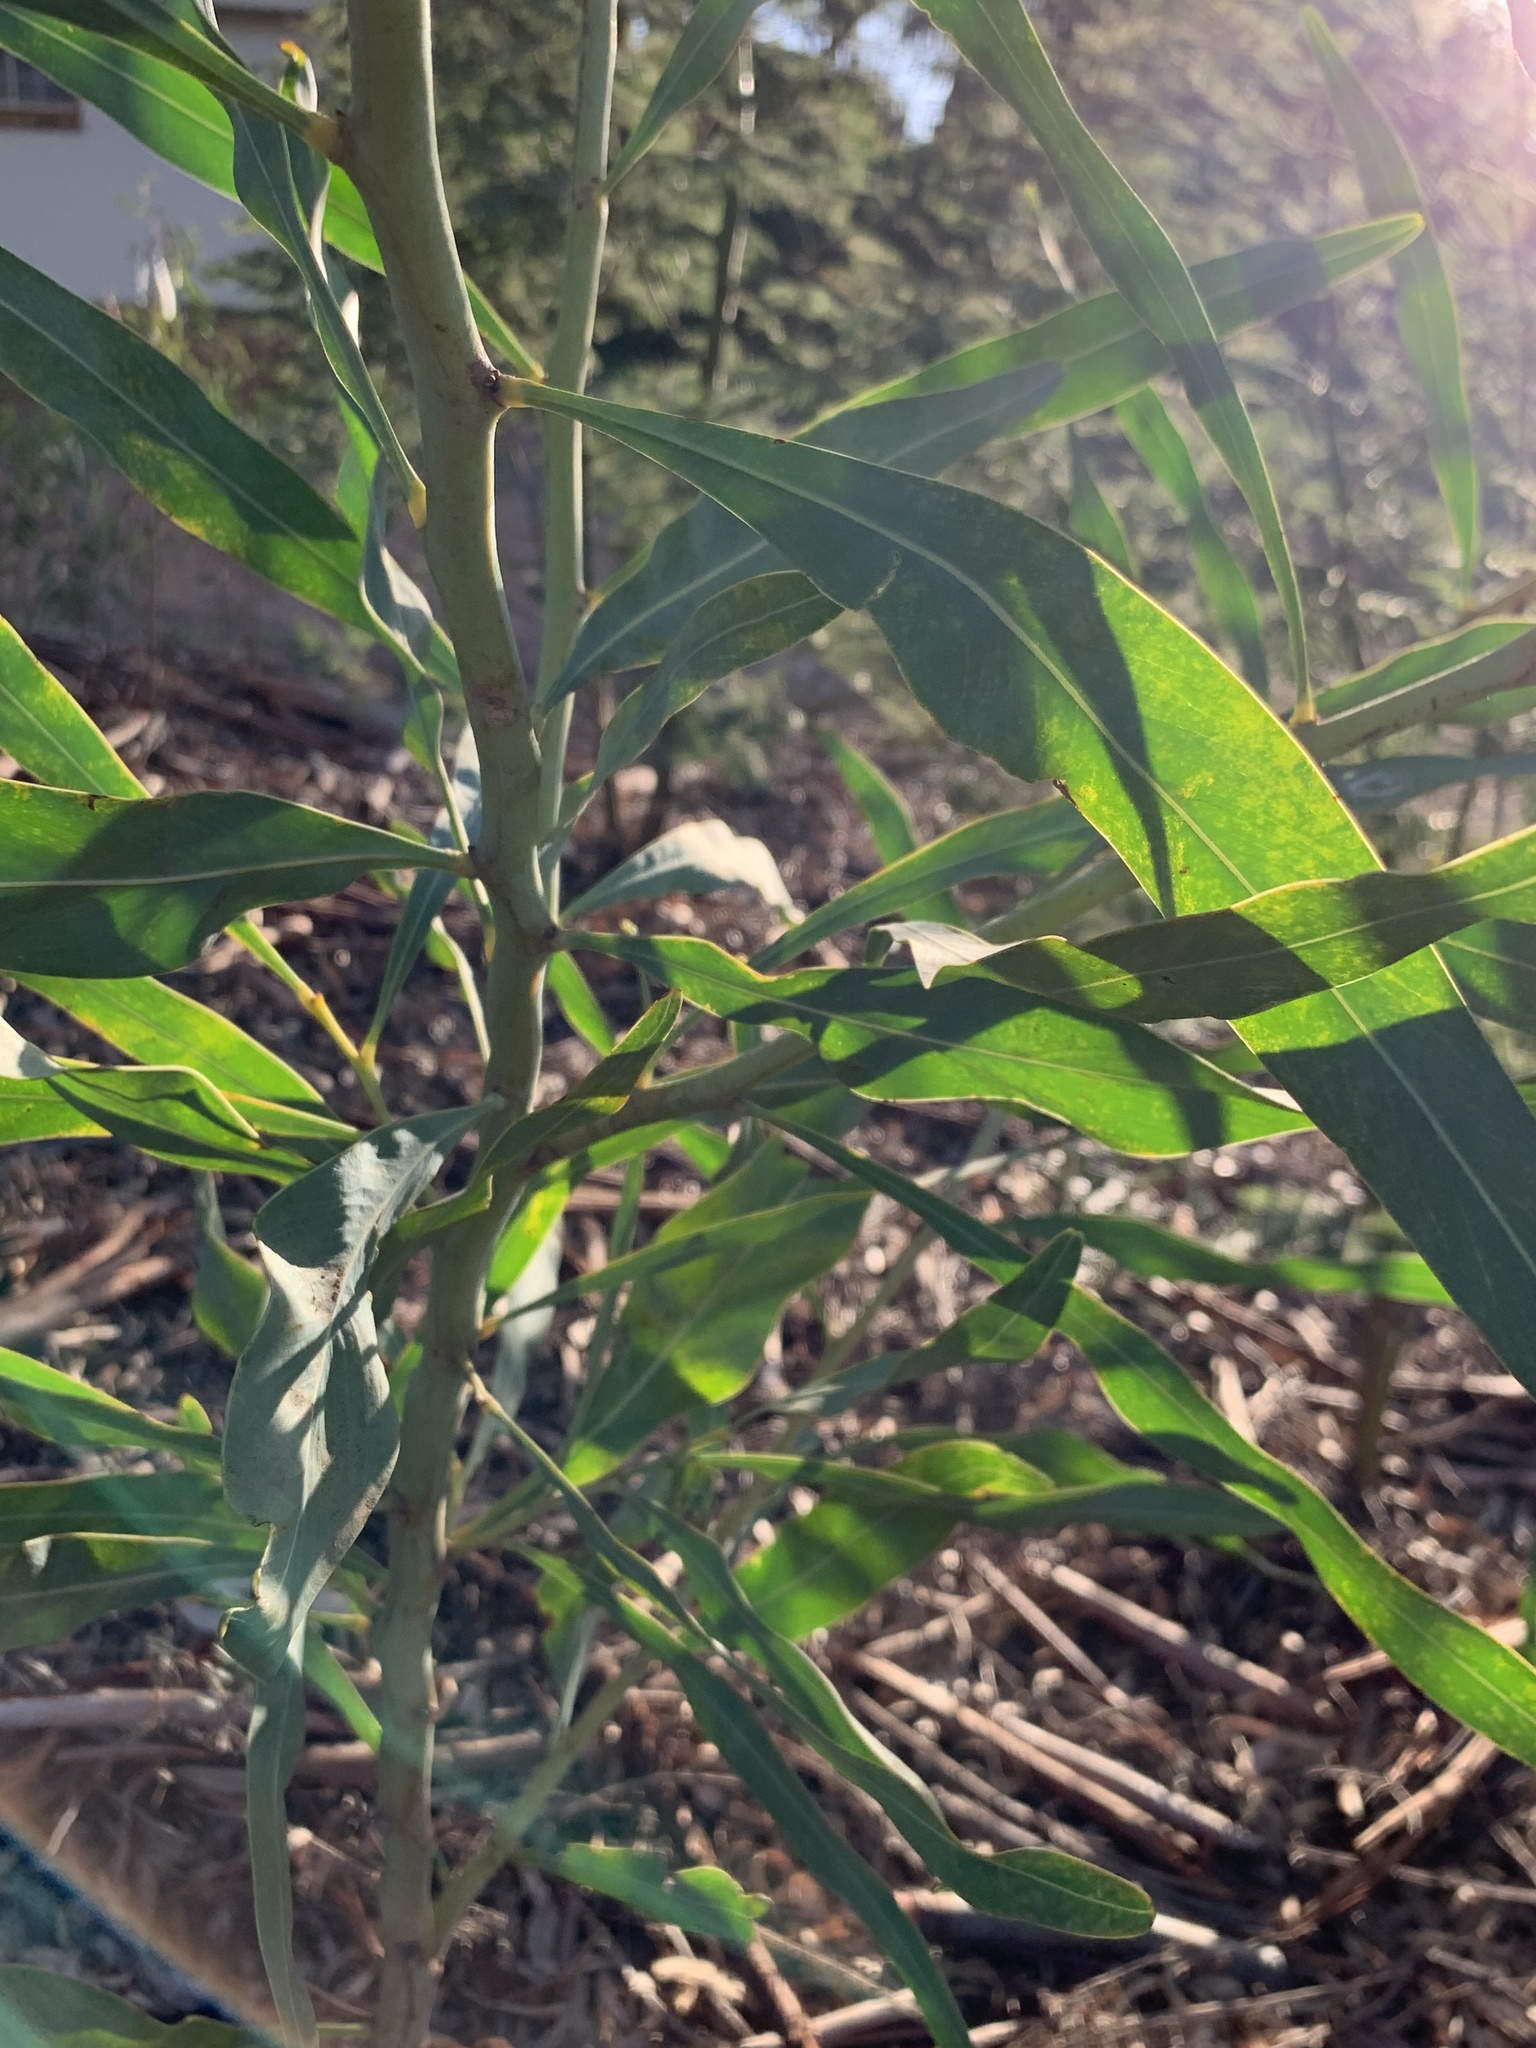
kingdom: Plantae
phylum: Tracheophyta
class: Magnoliopsida
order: Fabales
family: Fabaceae
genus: Acacia
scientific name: Acacia saligna
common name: Orange wattle
